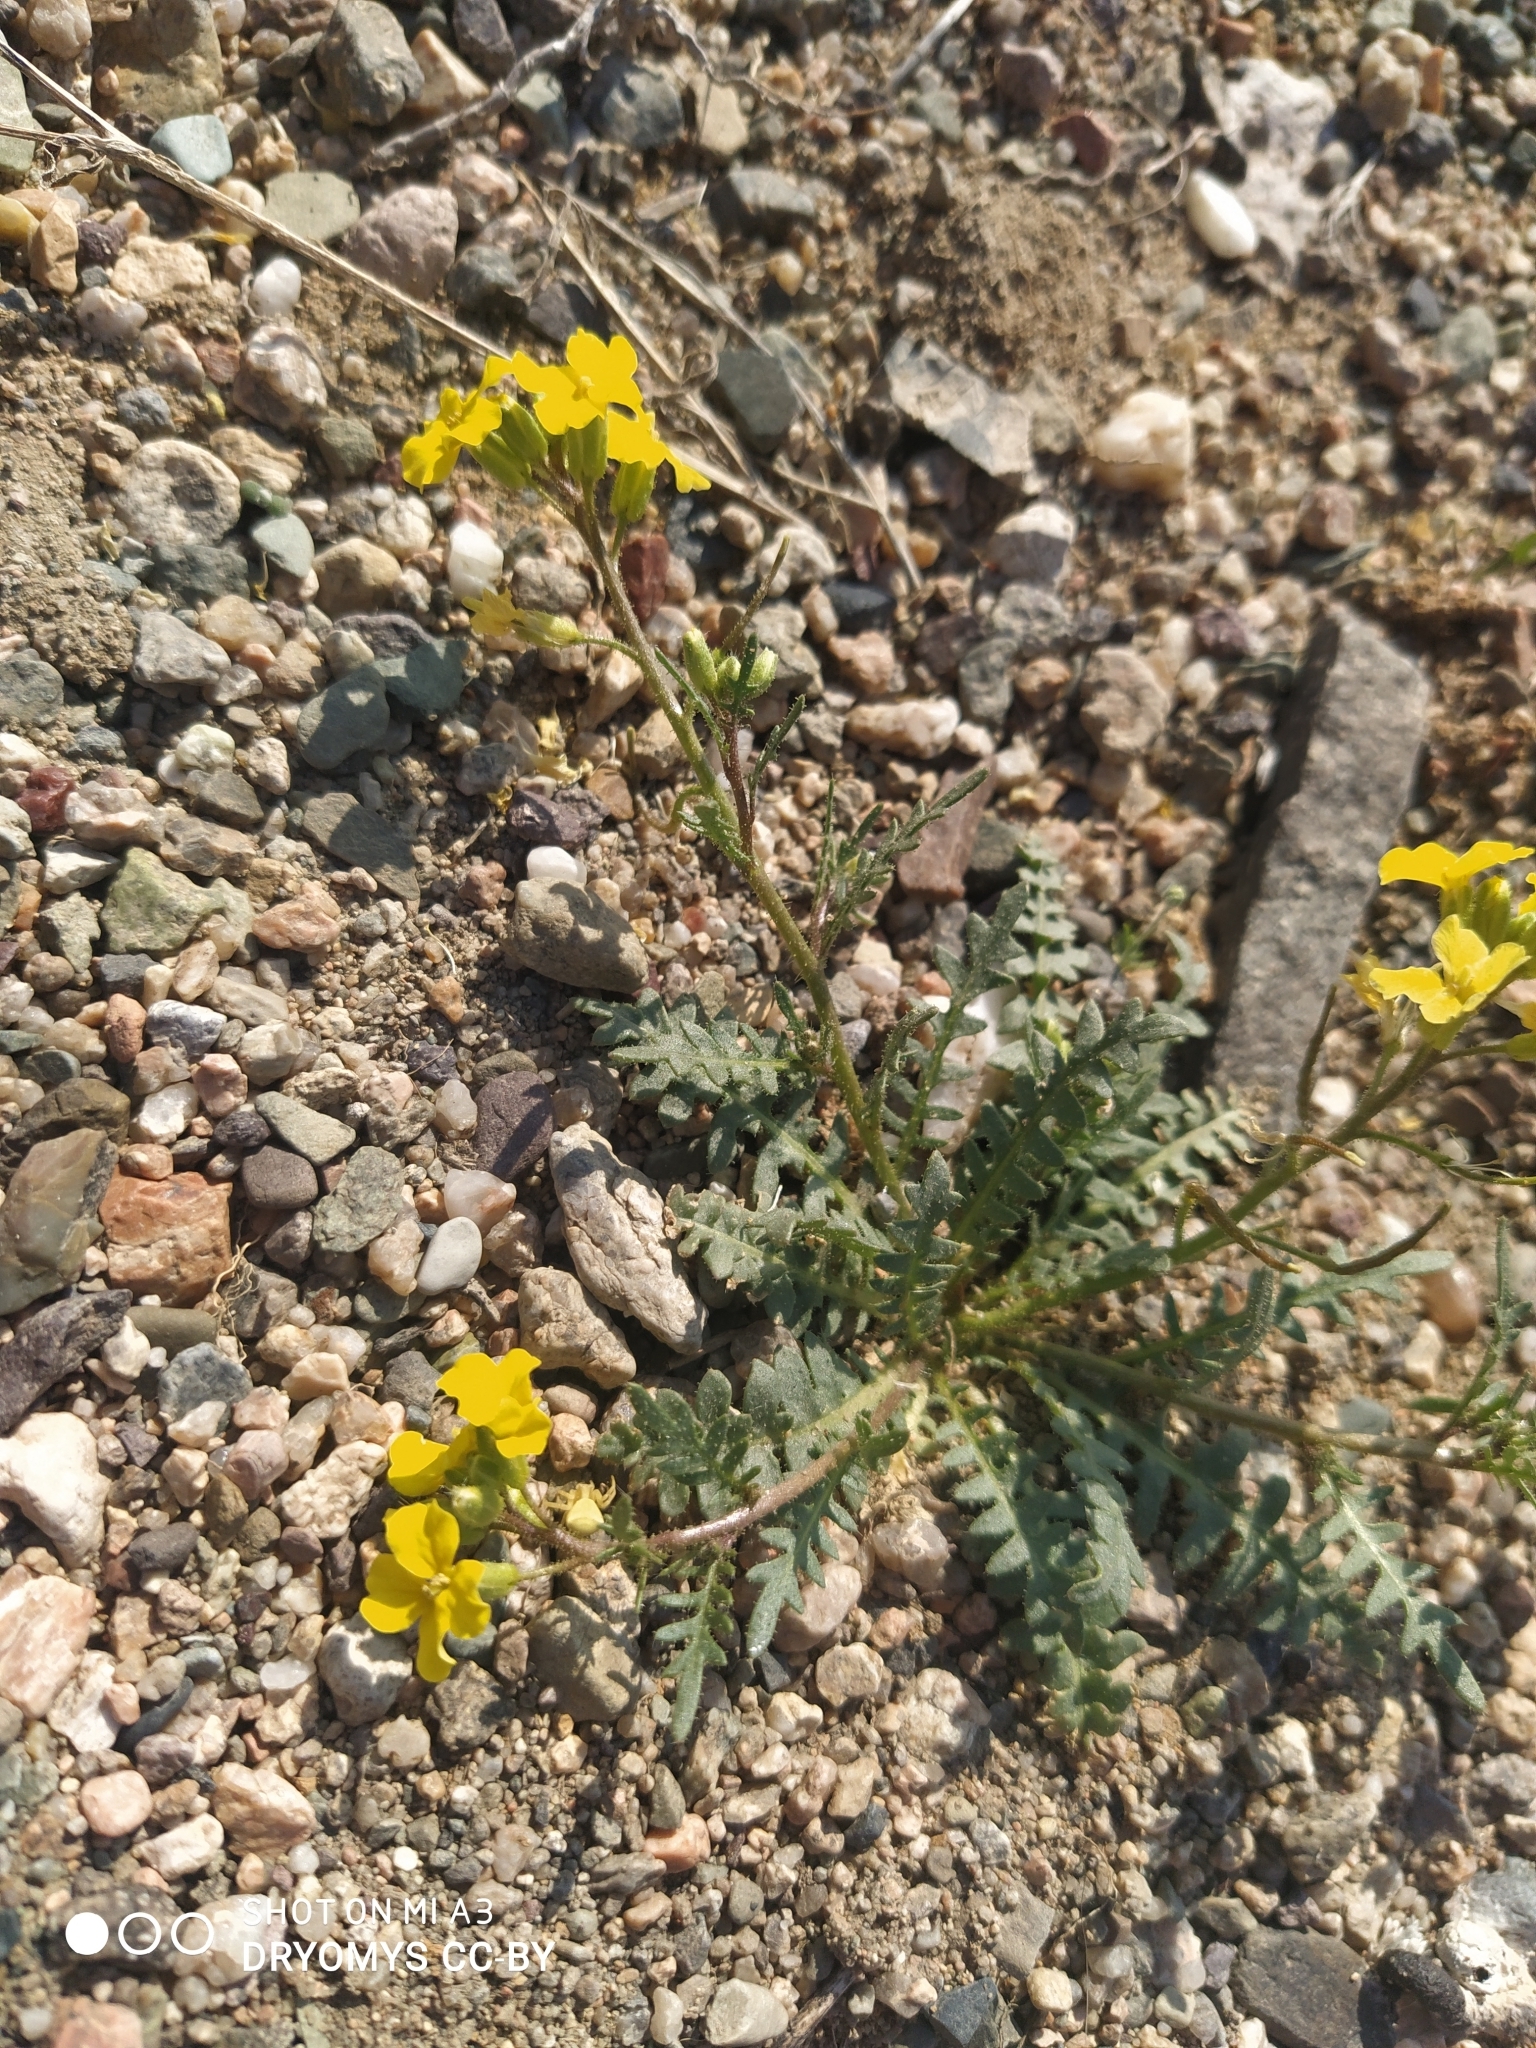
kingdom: Plantae
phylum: Tracheophyta
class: Magnoliopsida
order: Brassicales
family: Brassicaceae
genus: Chorispora
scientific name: Chorispora sibirica
